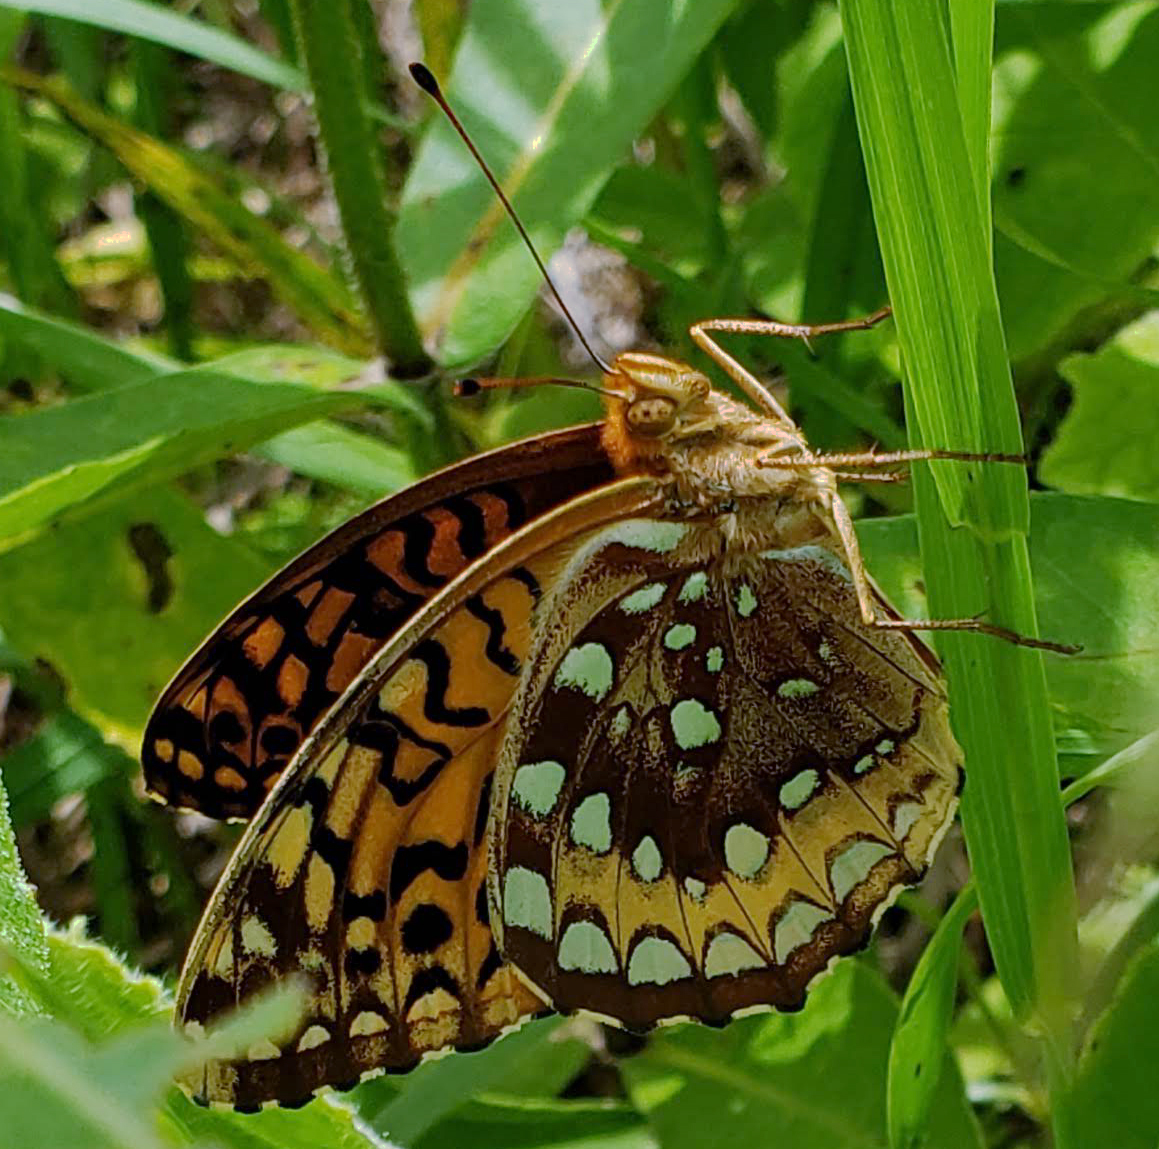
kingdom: Animalia
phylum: Arthropoda
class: Insecta
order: Lepidoptera
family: Nymphalidae
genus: Speyeria
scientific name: Speyeria cybele
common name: Great spangled fritillary
